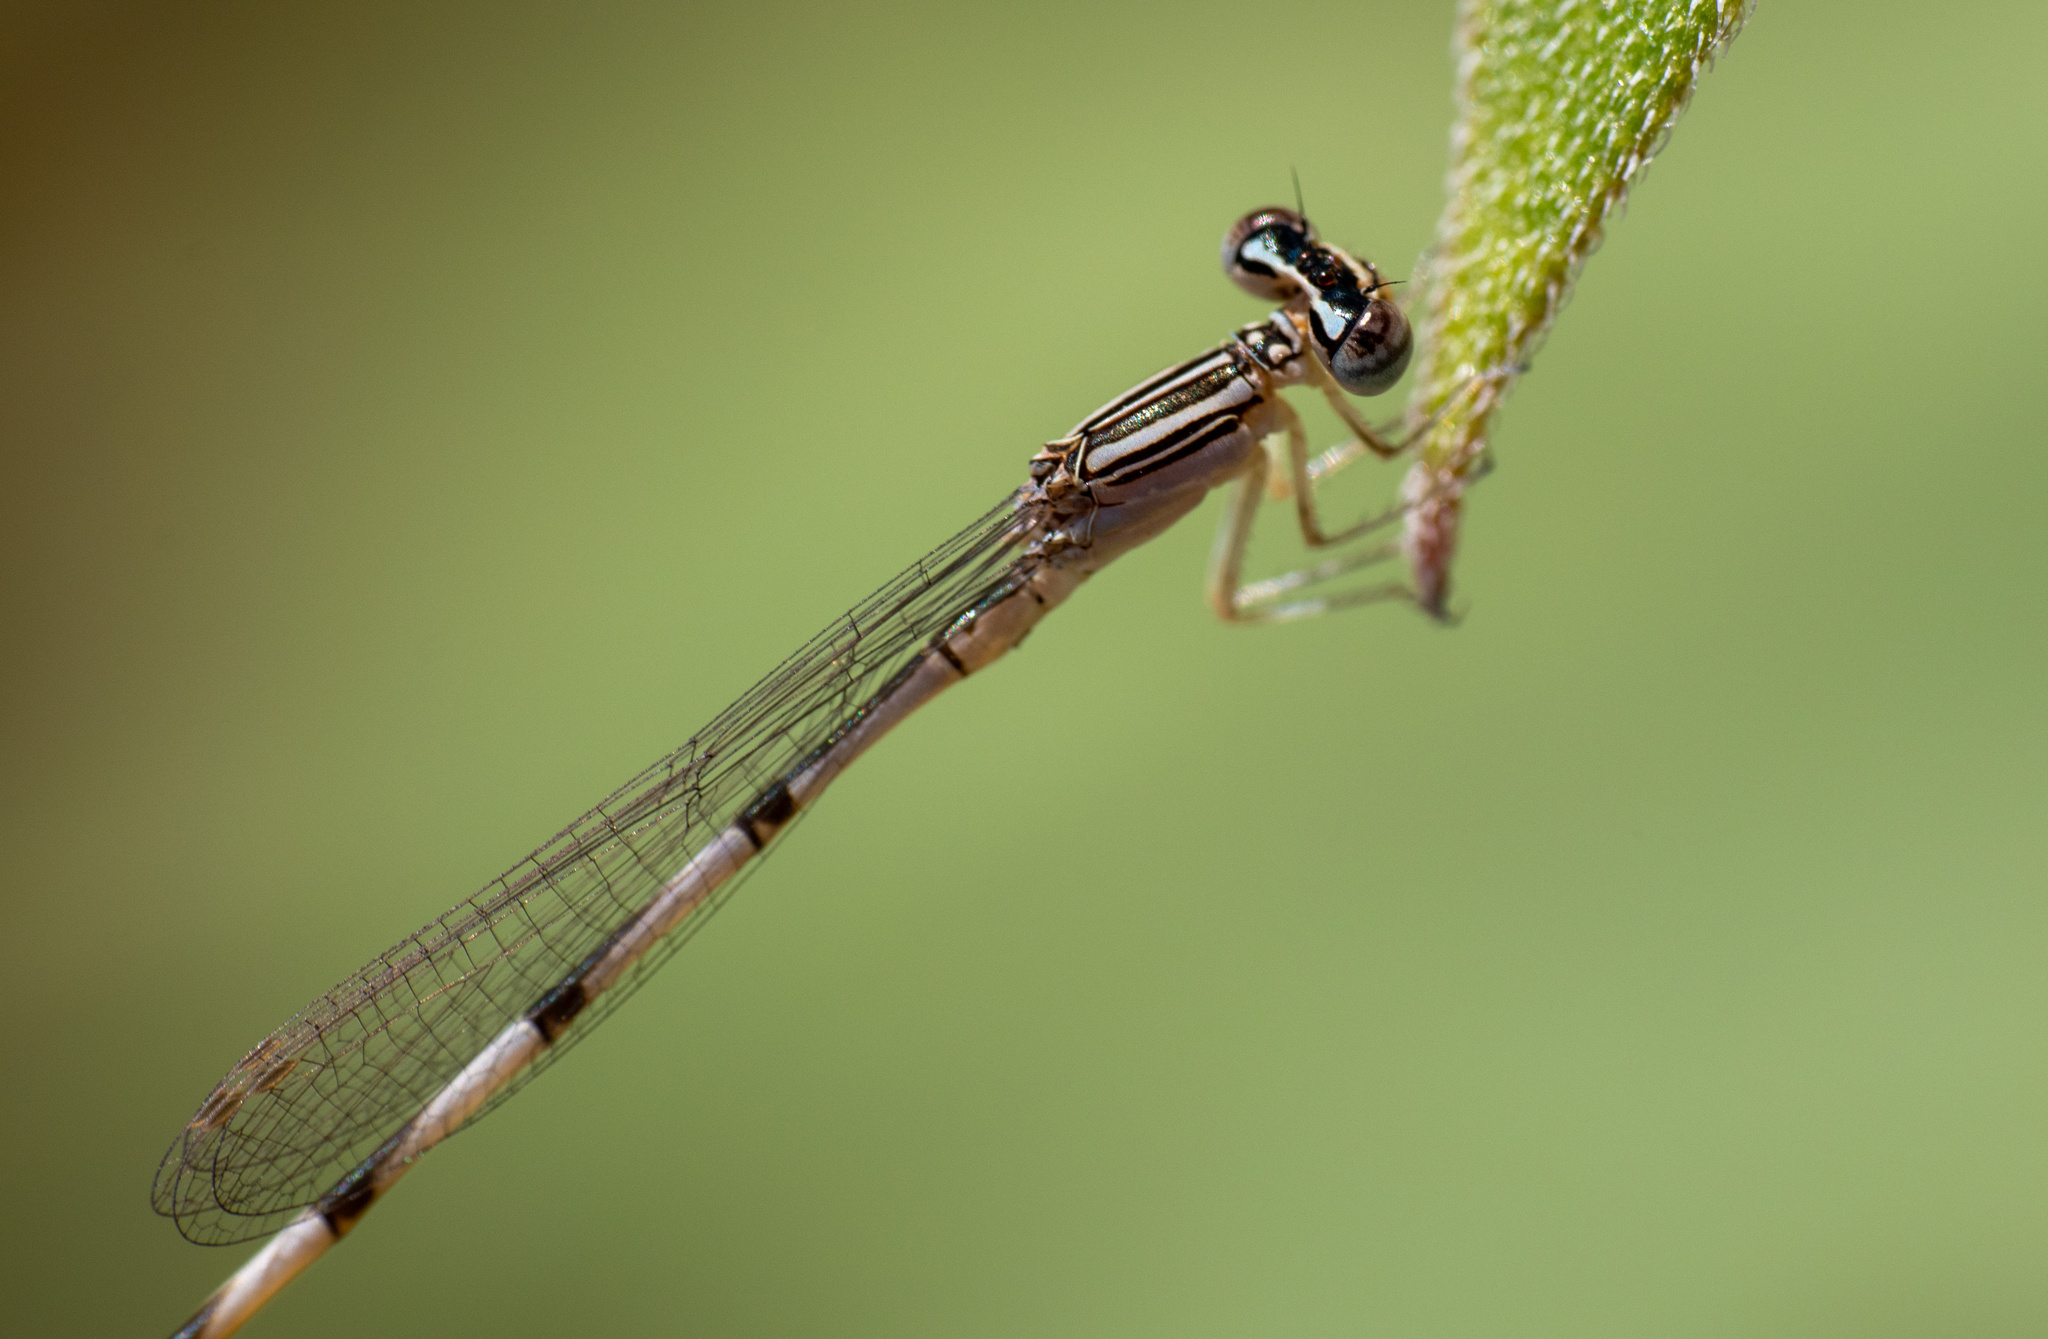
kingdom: Animalia
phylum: Arthropoda
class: Insecta
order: Odonata
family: Coenagrionidae
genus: Enallagma
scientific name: Enallagma basidens
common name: Double-striped bluet
